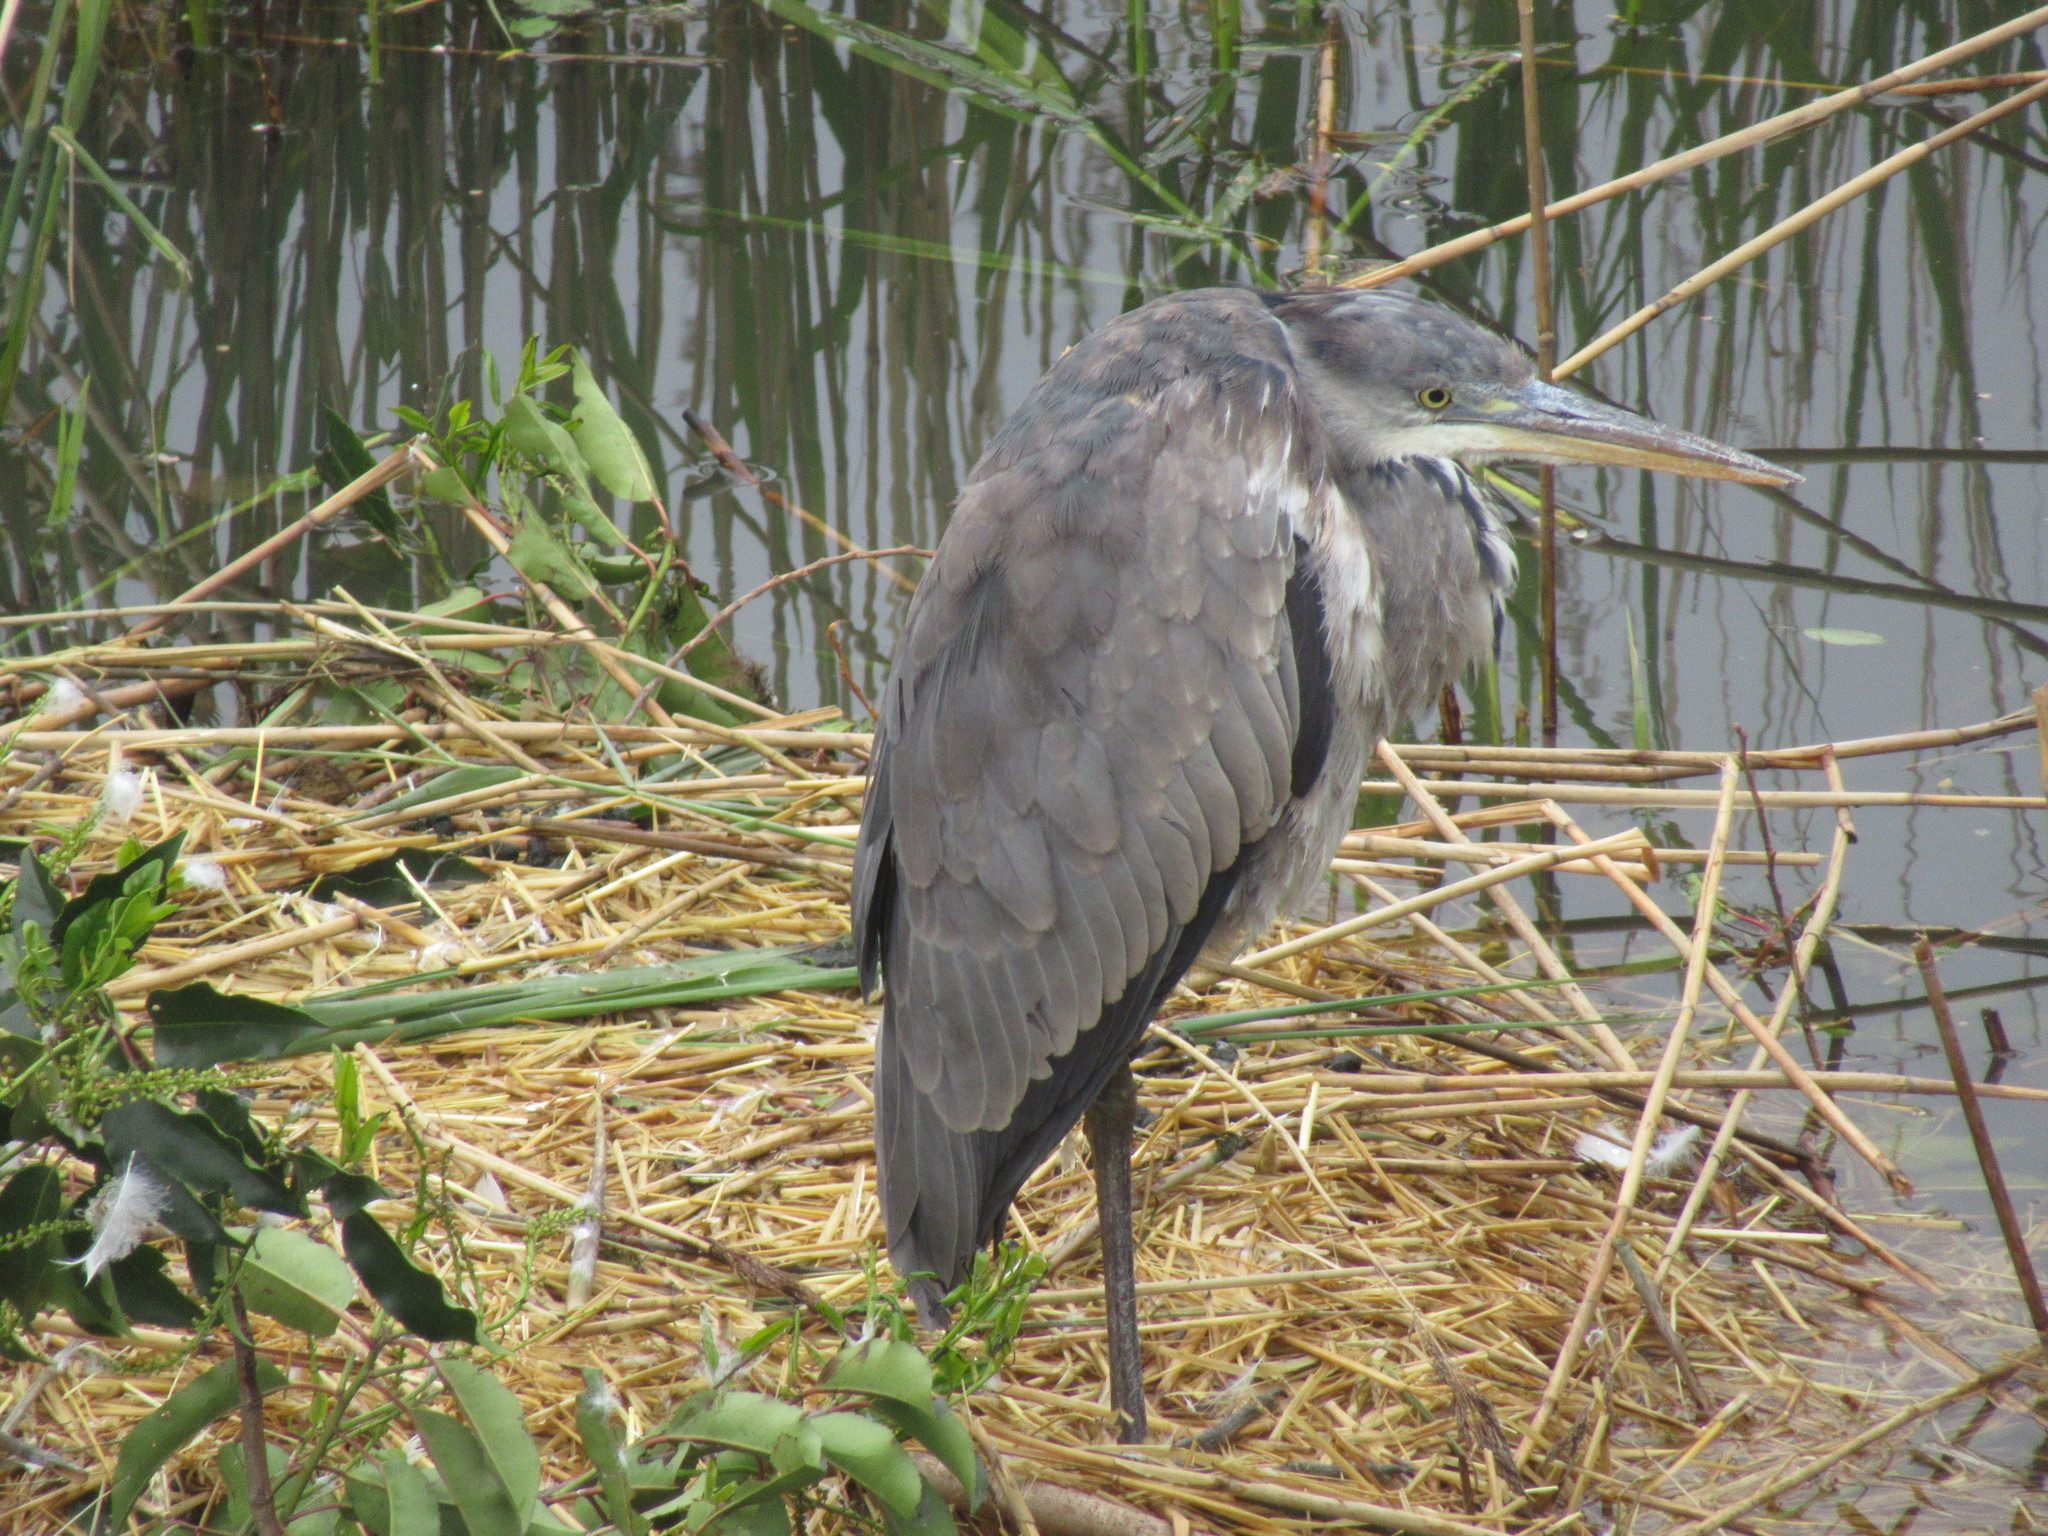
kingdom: Animalia
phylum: Chordata
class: Aves
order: Pelecaniformes
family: Ardeidae
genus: Ardea
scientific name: Ardea cinerea
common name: Grey heron
